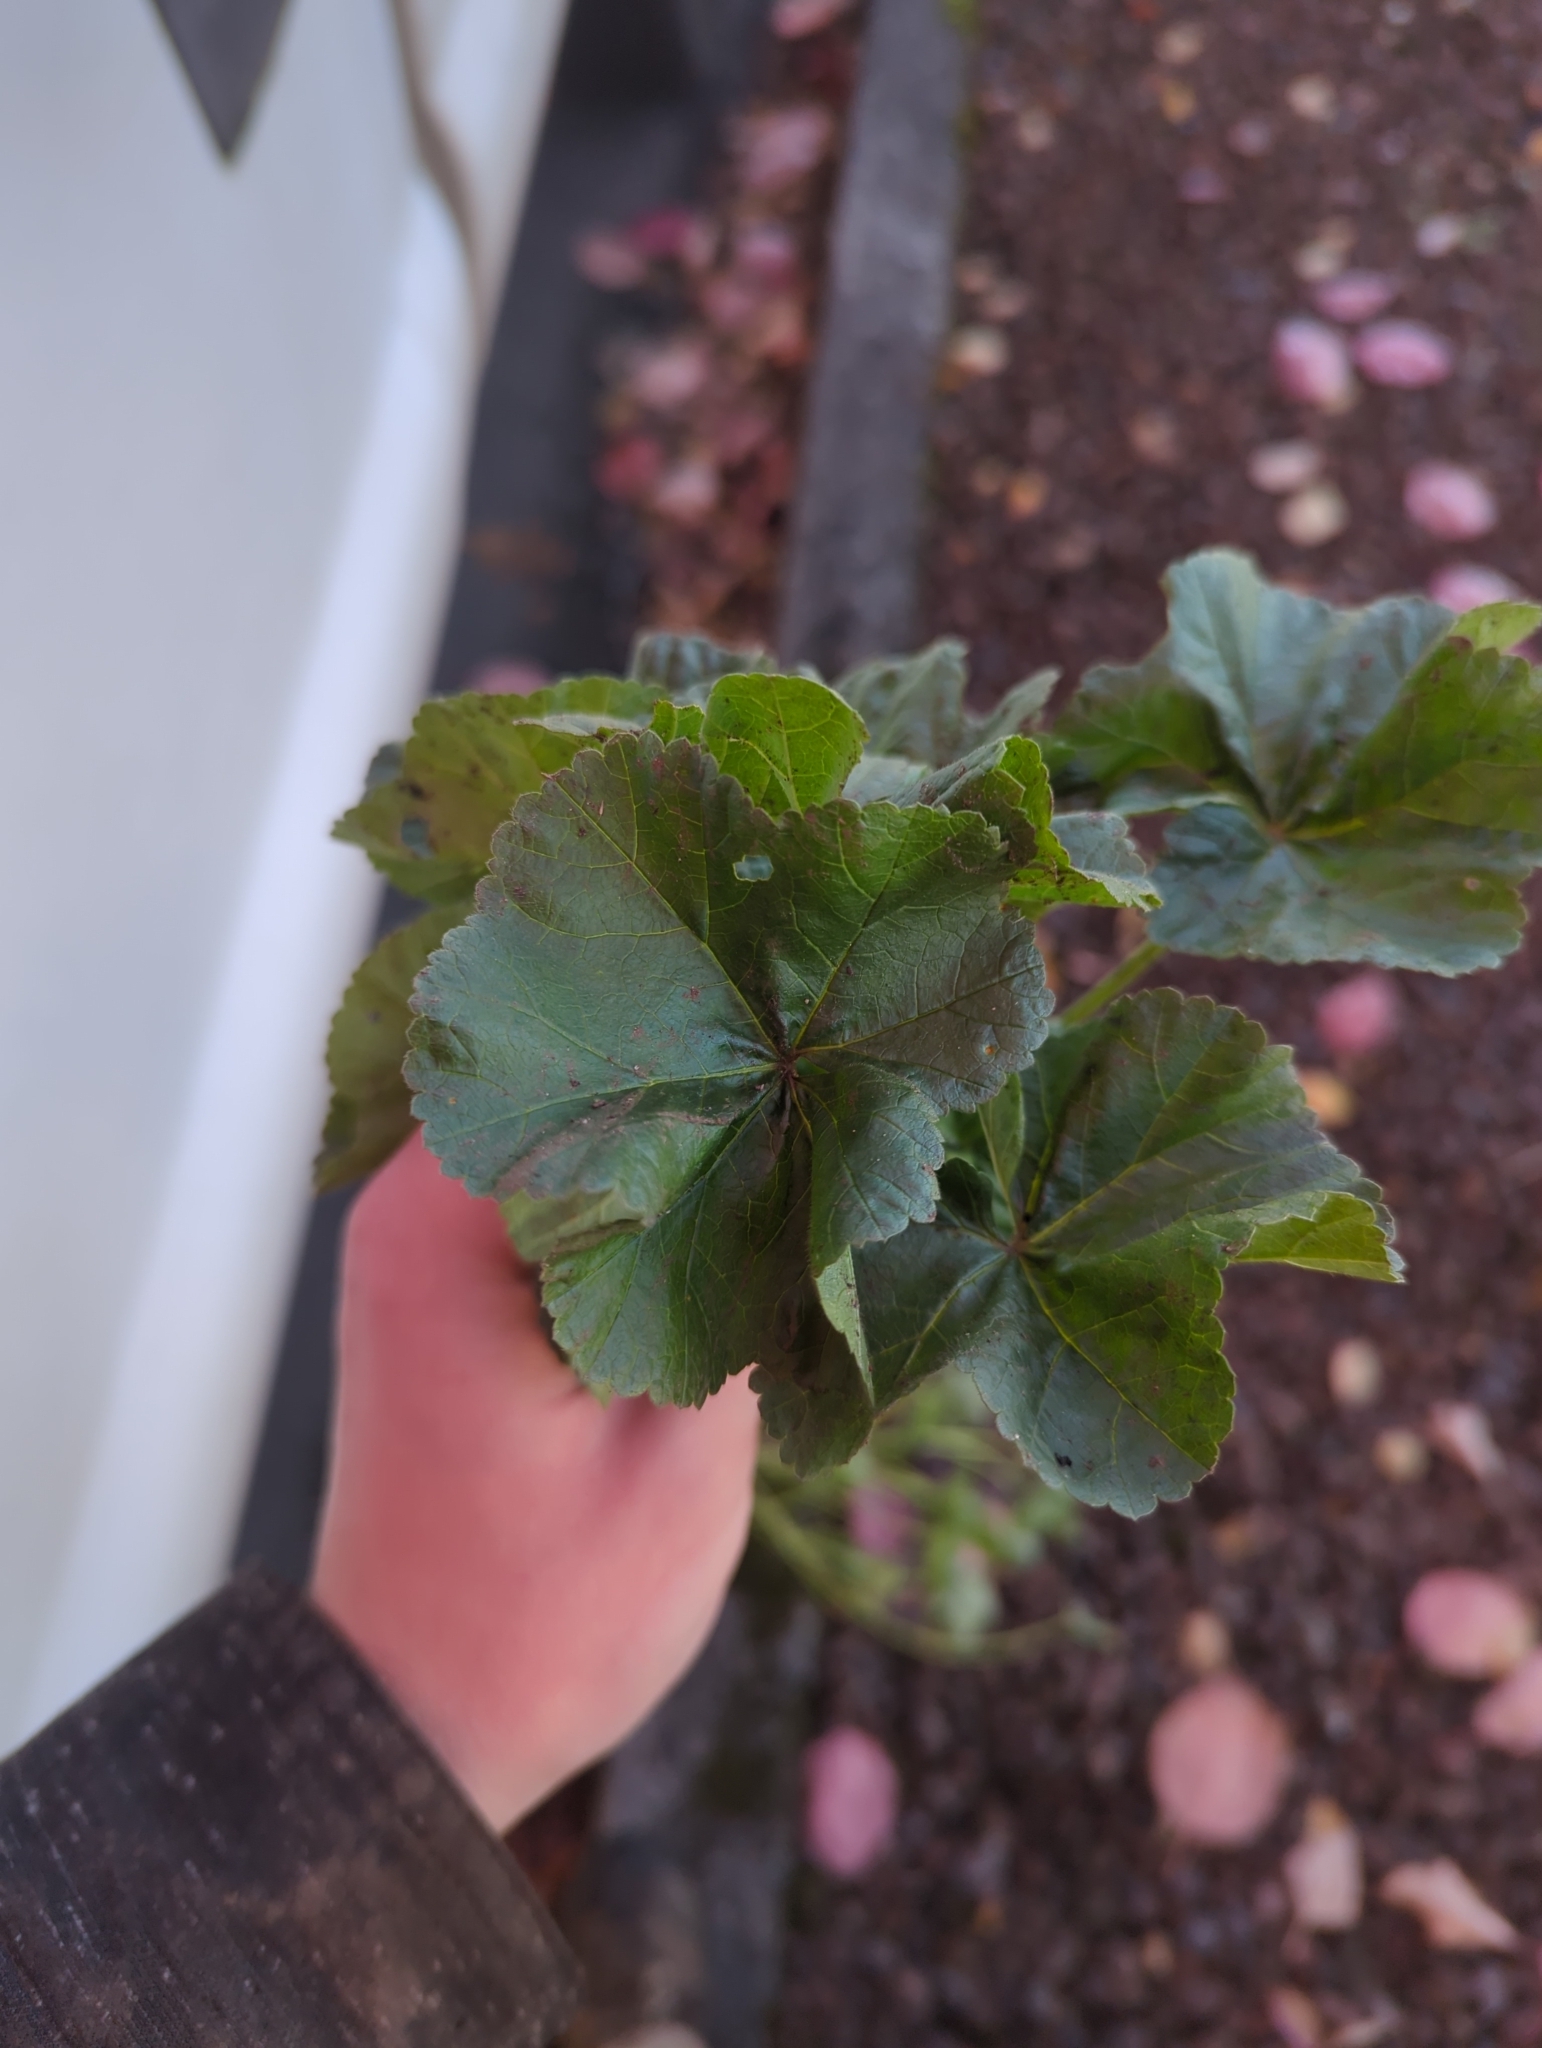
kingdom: Plantae
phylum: Tracheophyta
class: Magnoliopsida
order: Malvales
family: Malvaceae
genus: Malva
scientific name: Malva neglecta
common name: Common mallow
